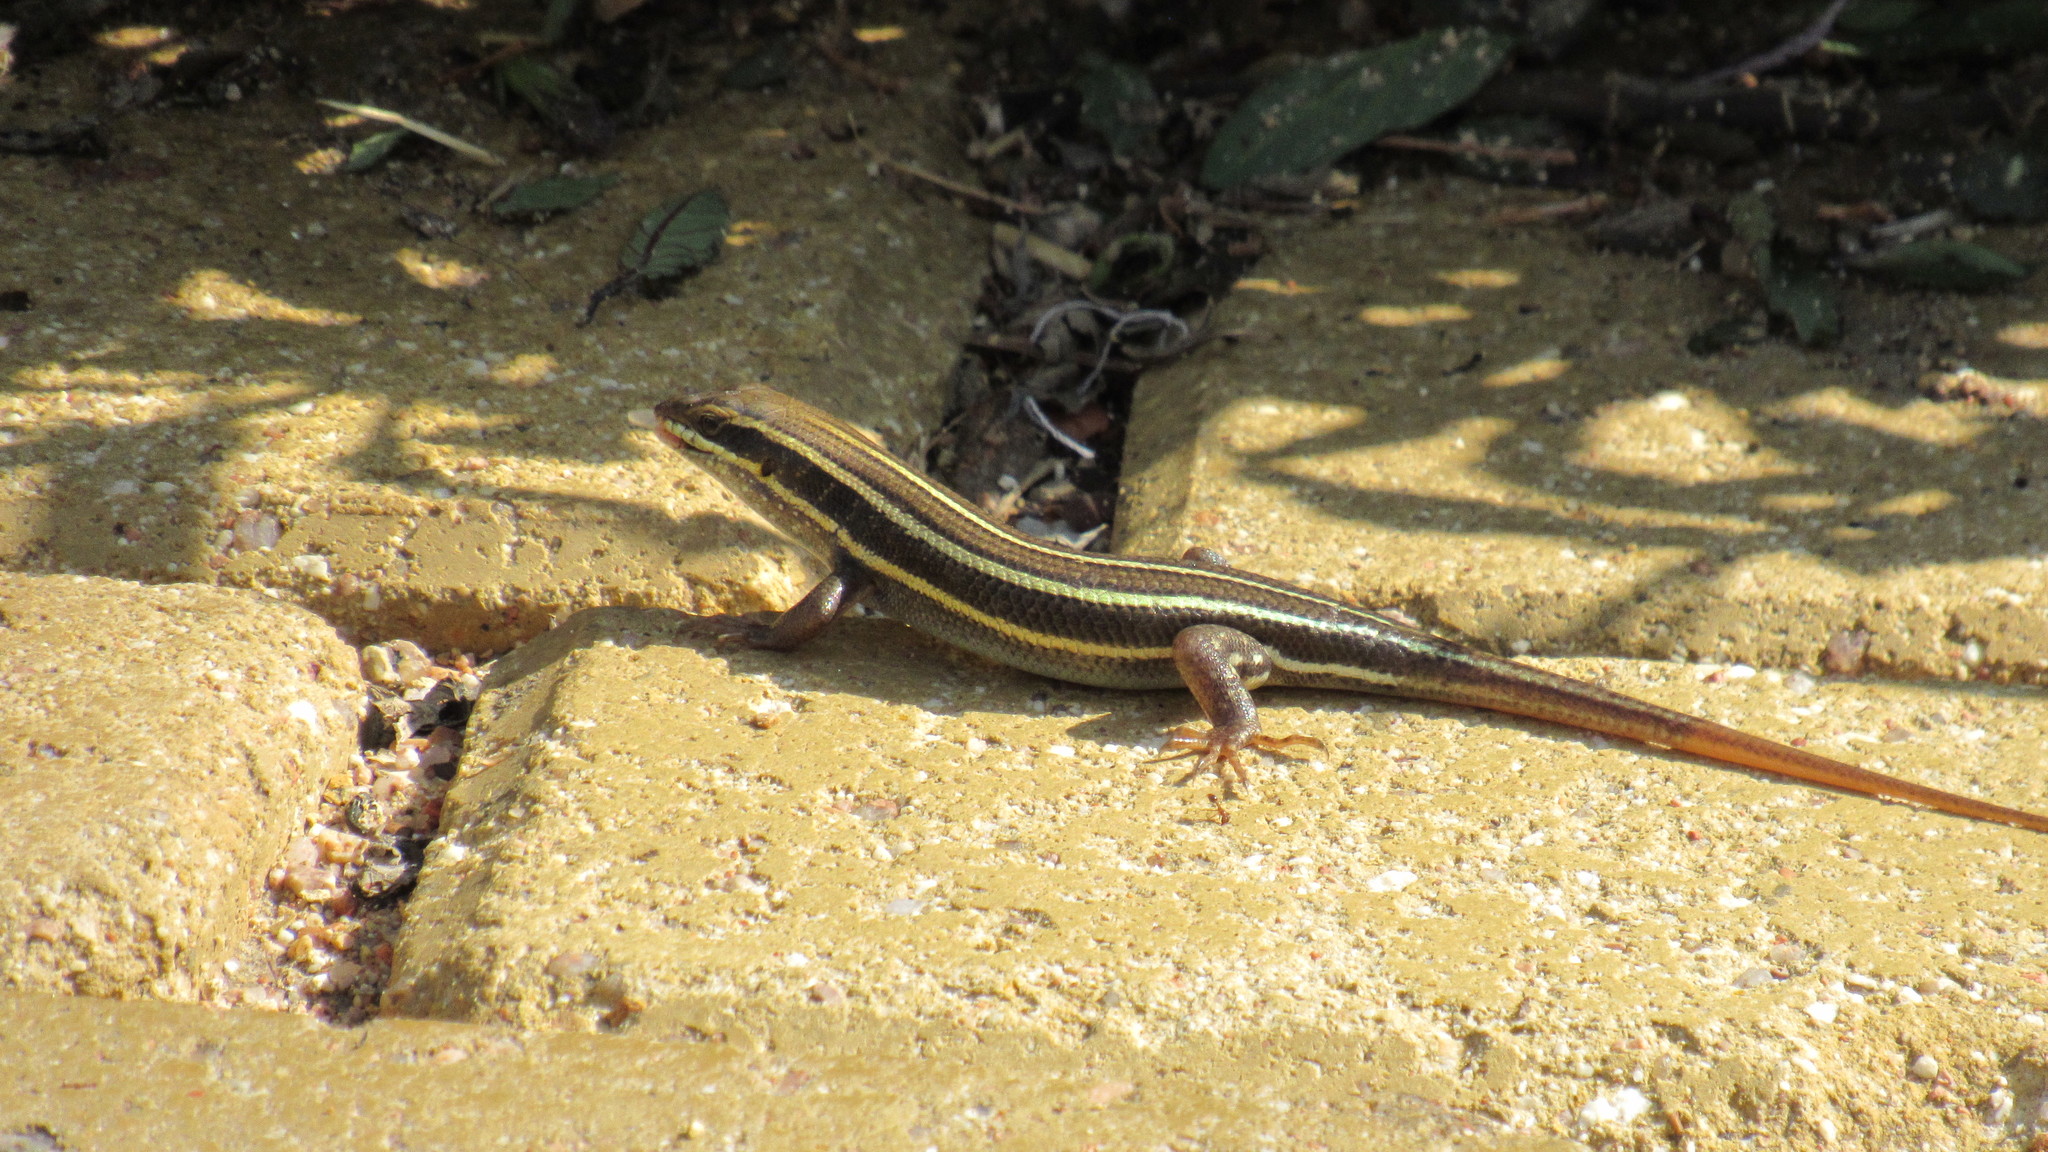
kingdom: Animalia
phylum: Chordata
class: Squamata
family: Scincidae
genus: Trachylepis
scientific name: Trachylepis quinquetaeniata
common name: African five-lined skink
